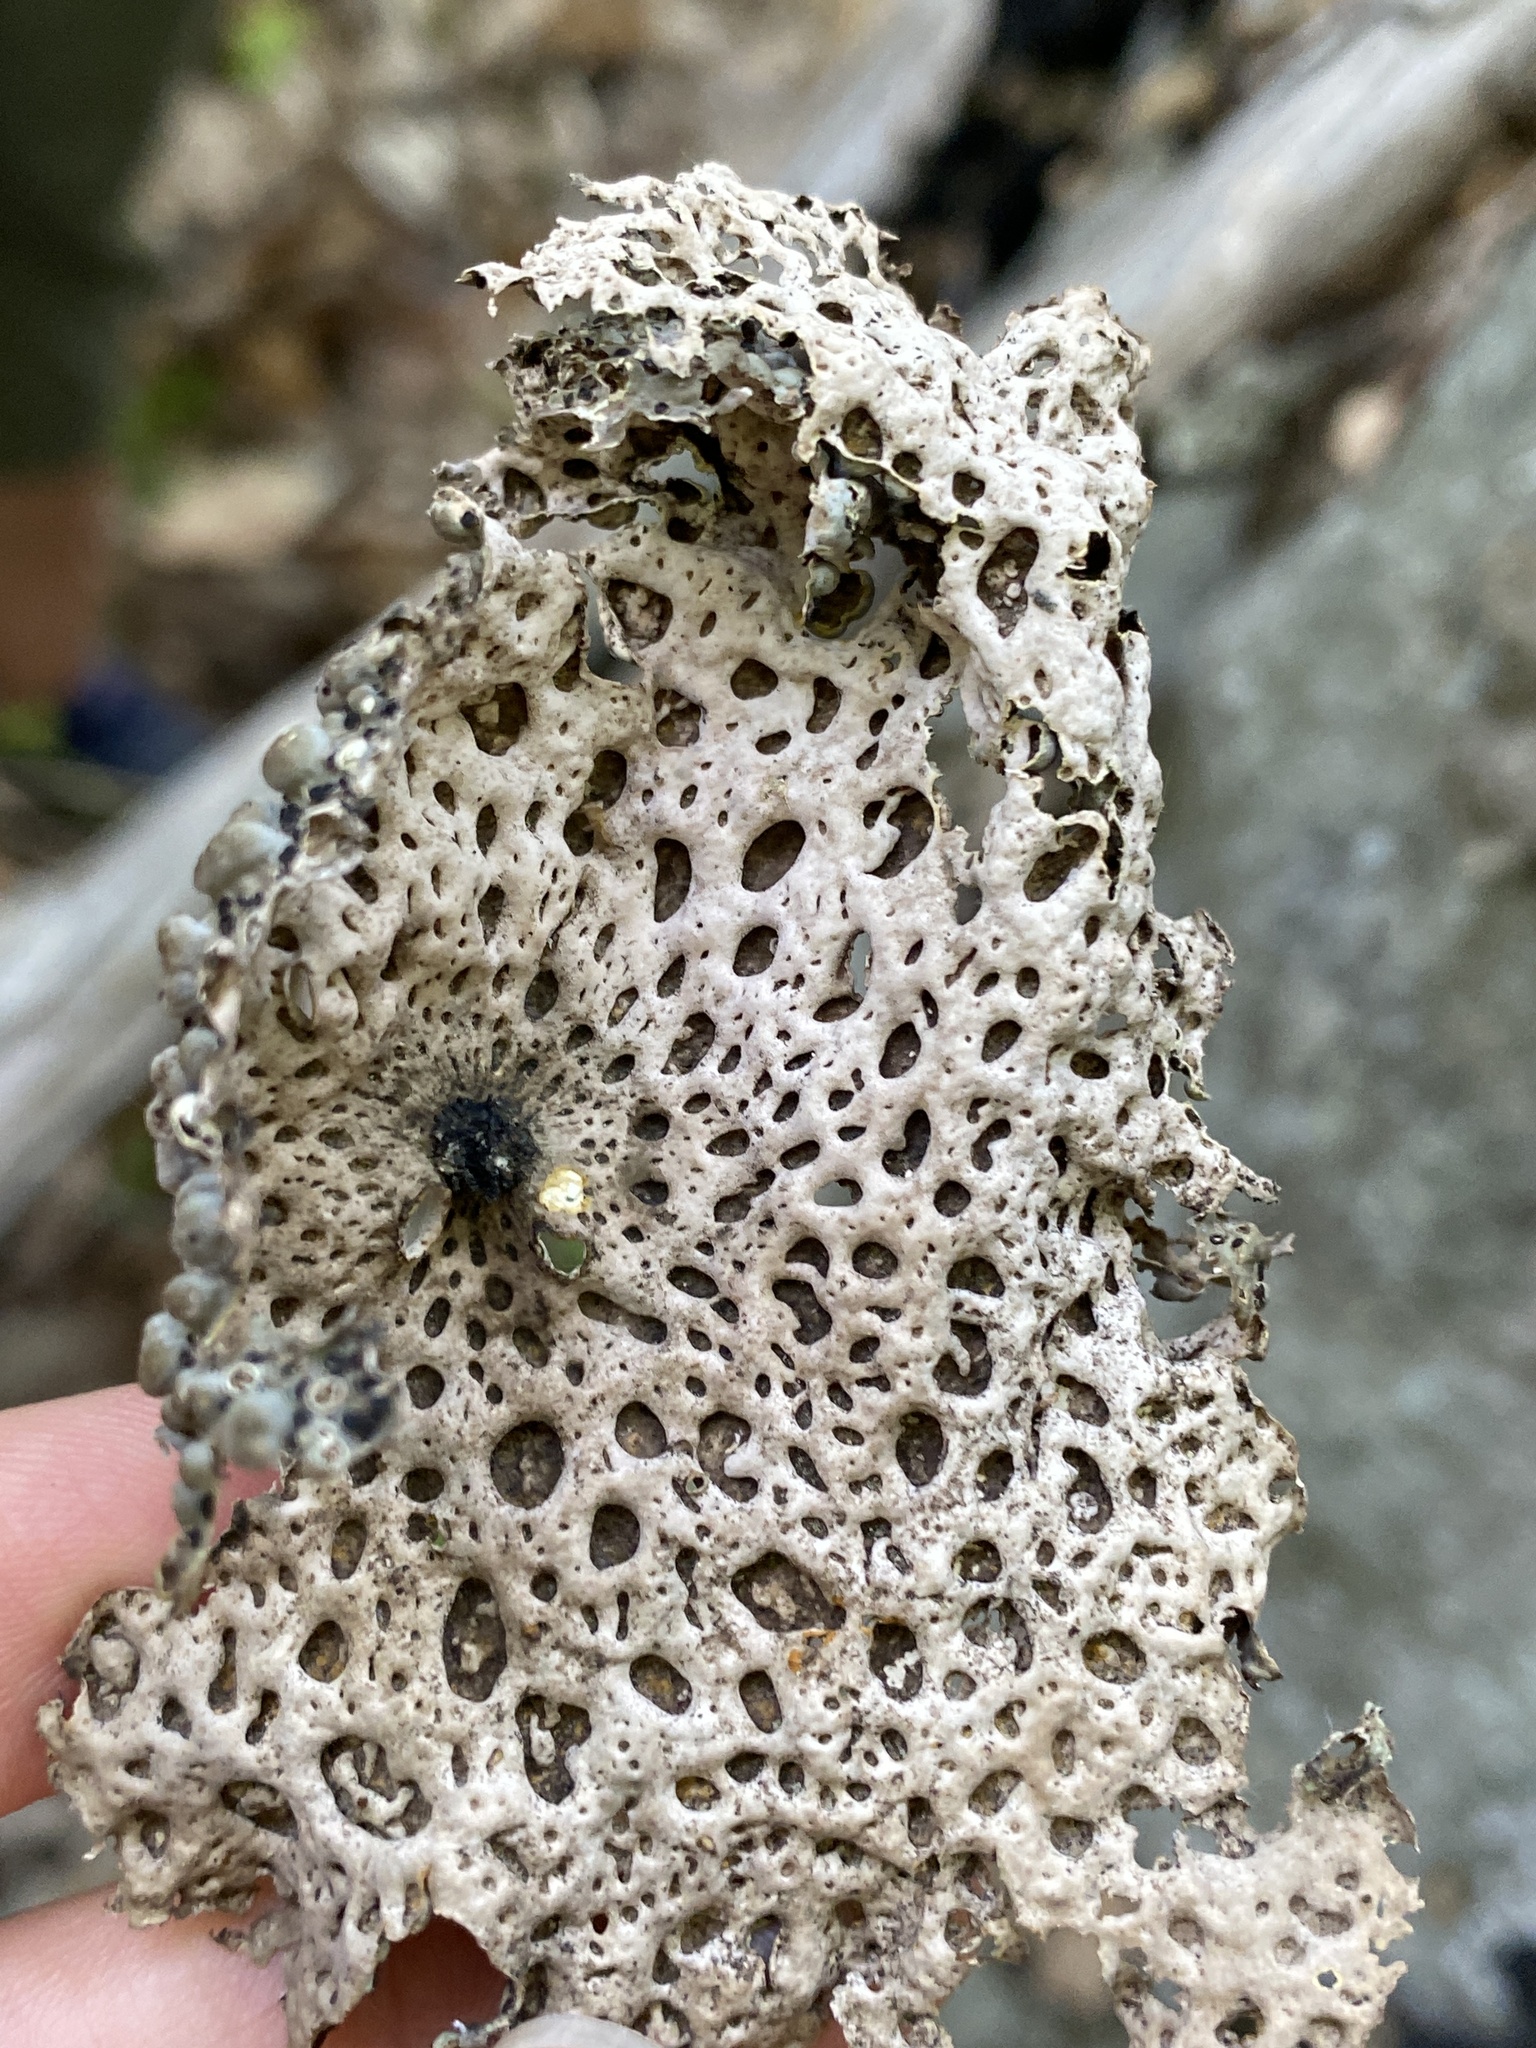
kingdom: Fungi
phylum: Ascomycota
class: Lecanoromycetes
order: Umbilicariales
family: Umbilicariaceae
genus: Lasallia
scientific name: Lasallia papulosa
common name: Common toadskin lichen
